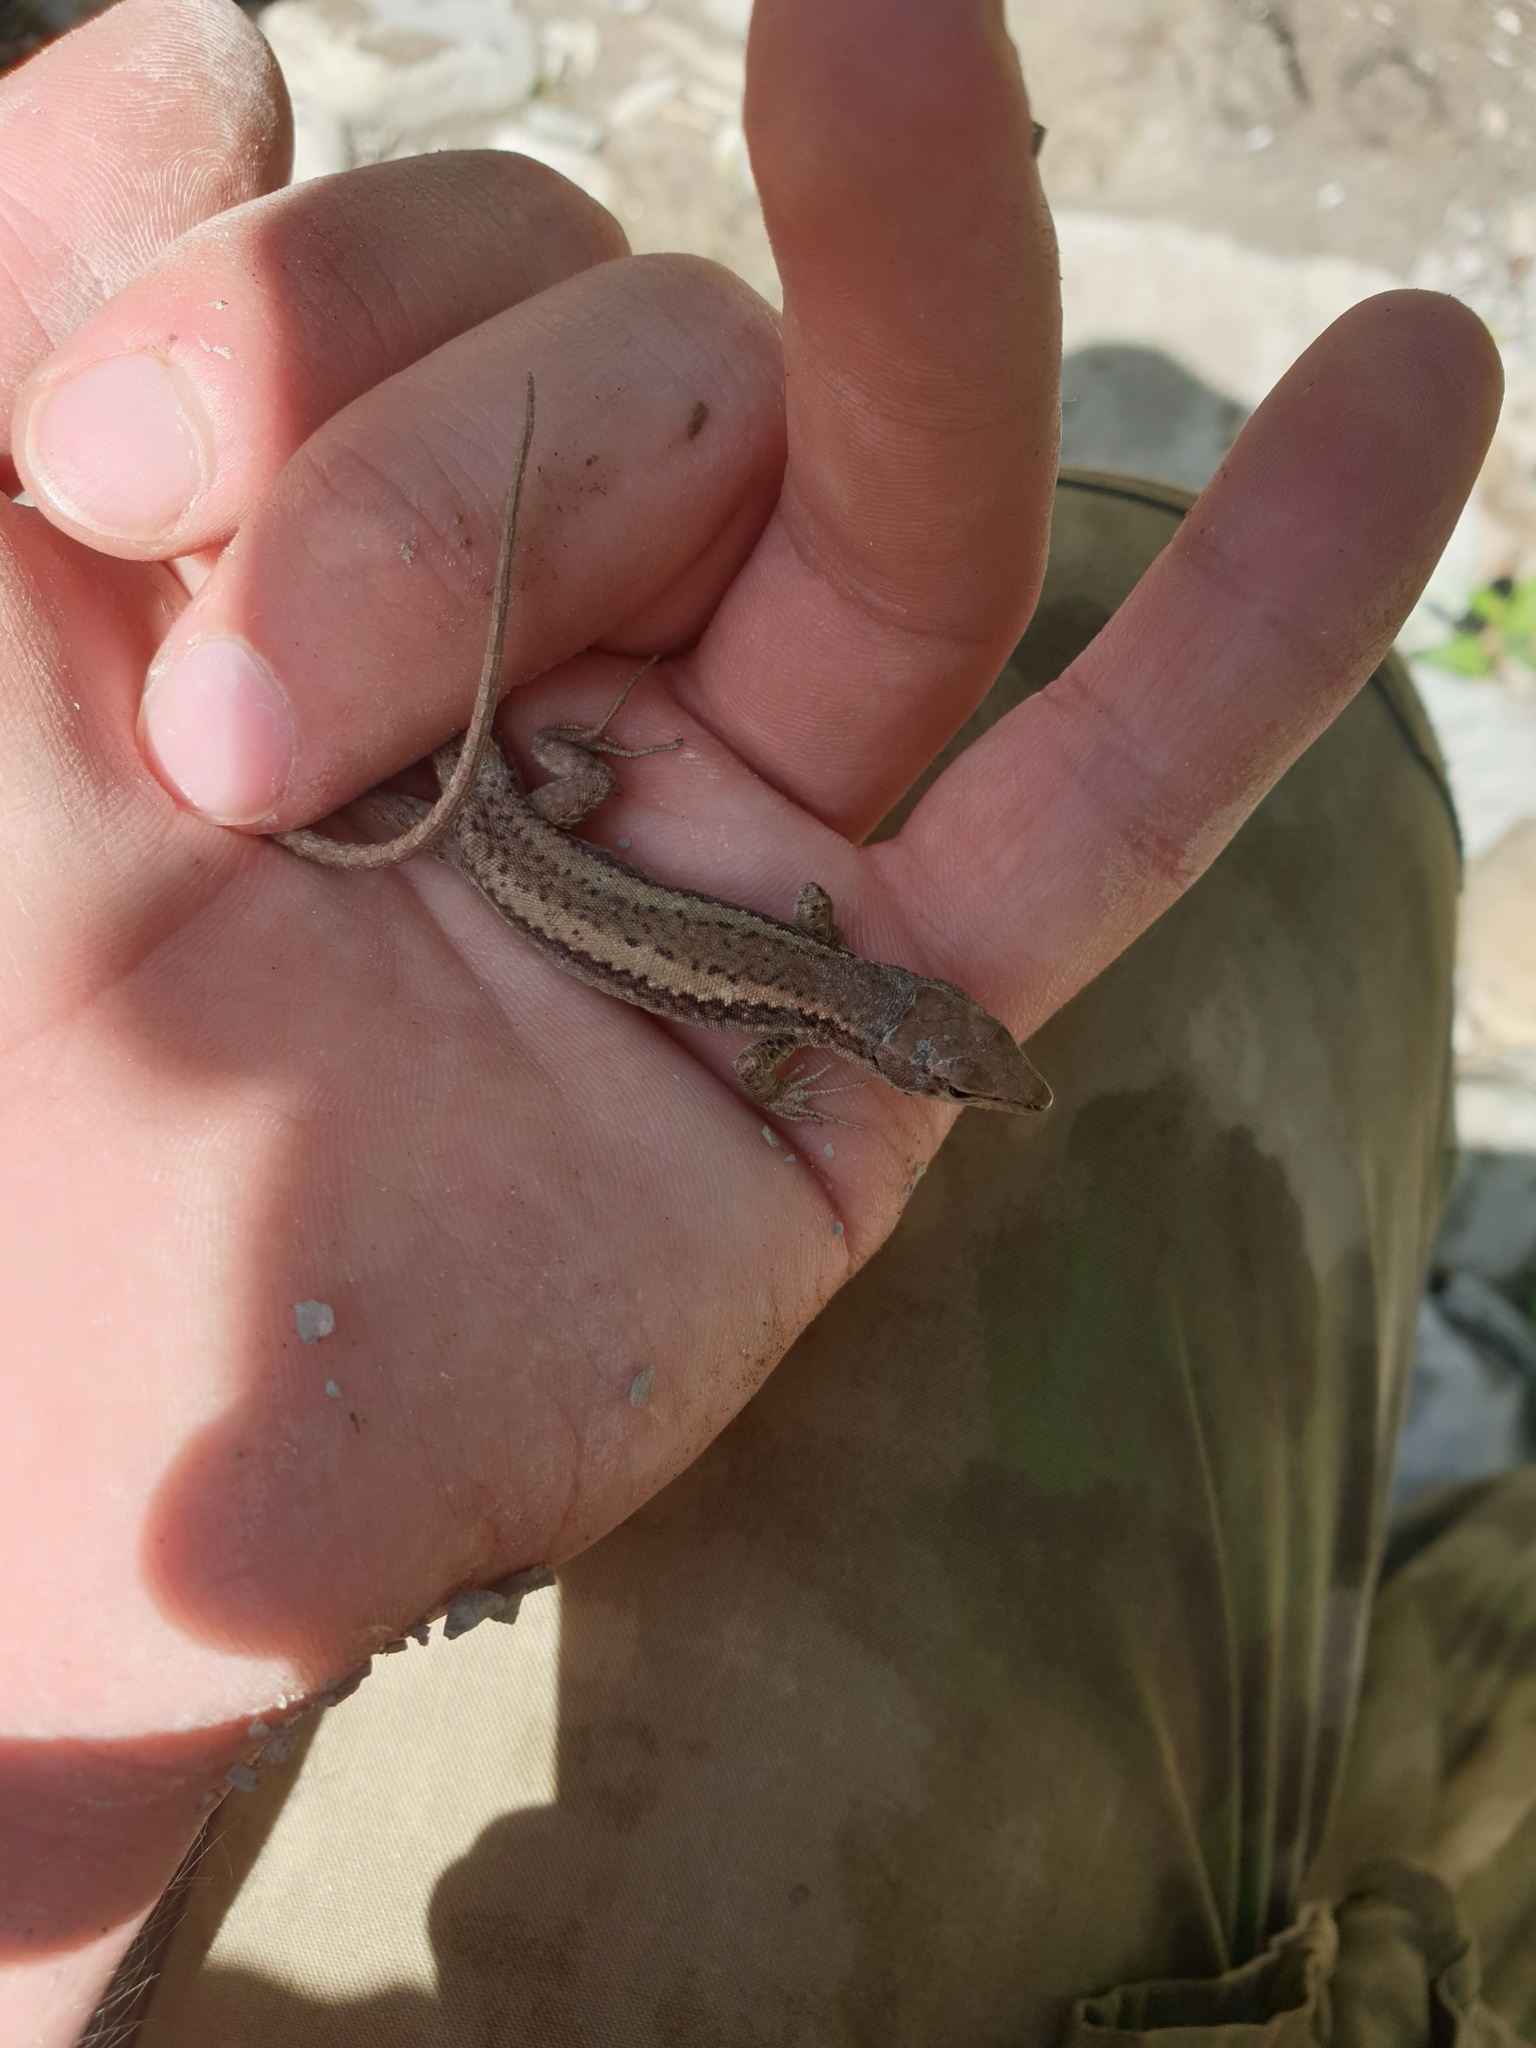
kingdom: Animalia
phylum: Chordata
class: Squamata
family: Lacertidae
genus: Darevskia
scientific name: Darevskia daghestanica
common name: Dagestan lizard
